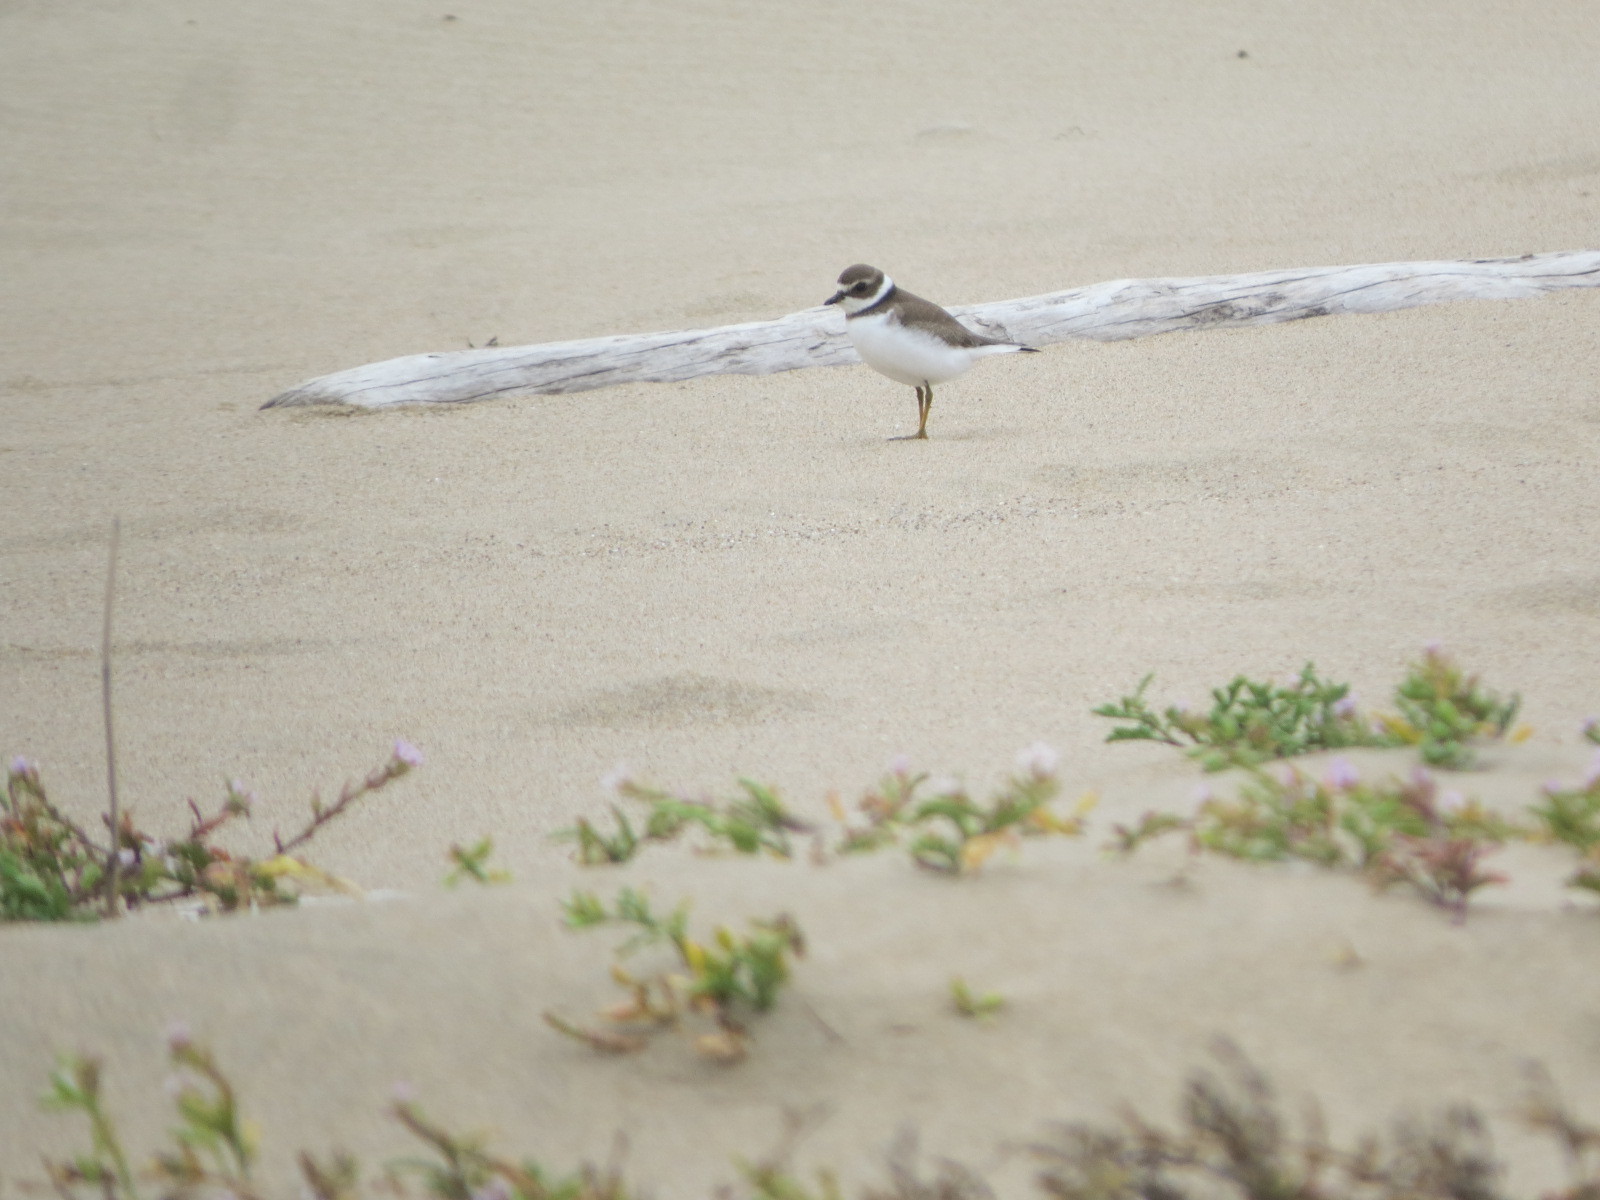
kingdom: Animalia
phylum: Chordata
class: Aves
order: Charadriiformes
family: Charadriidae
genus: Charadrius
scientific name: Charadrius semipalmatus
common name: Semipalmated plover
